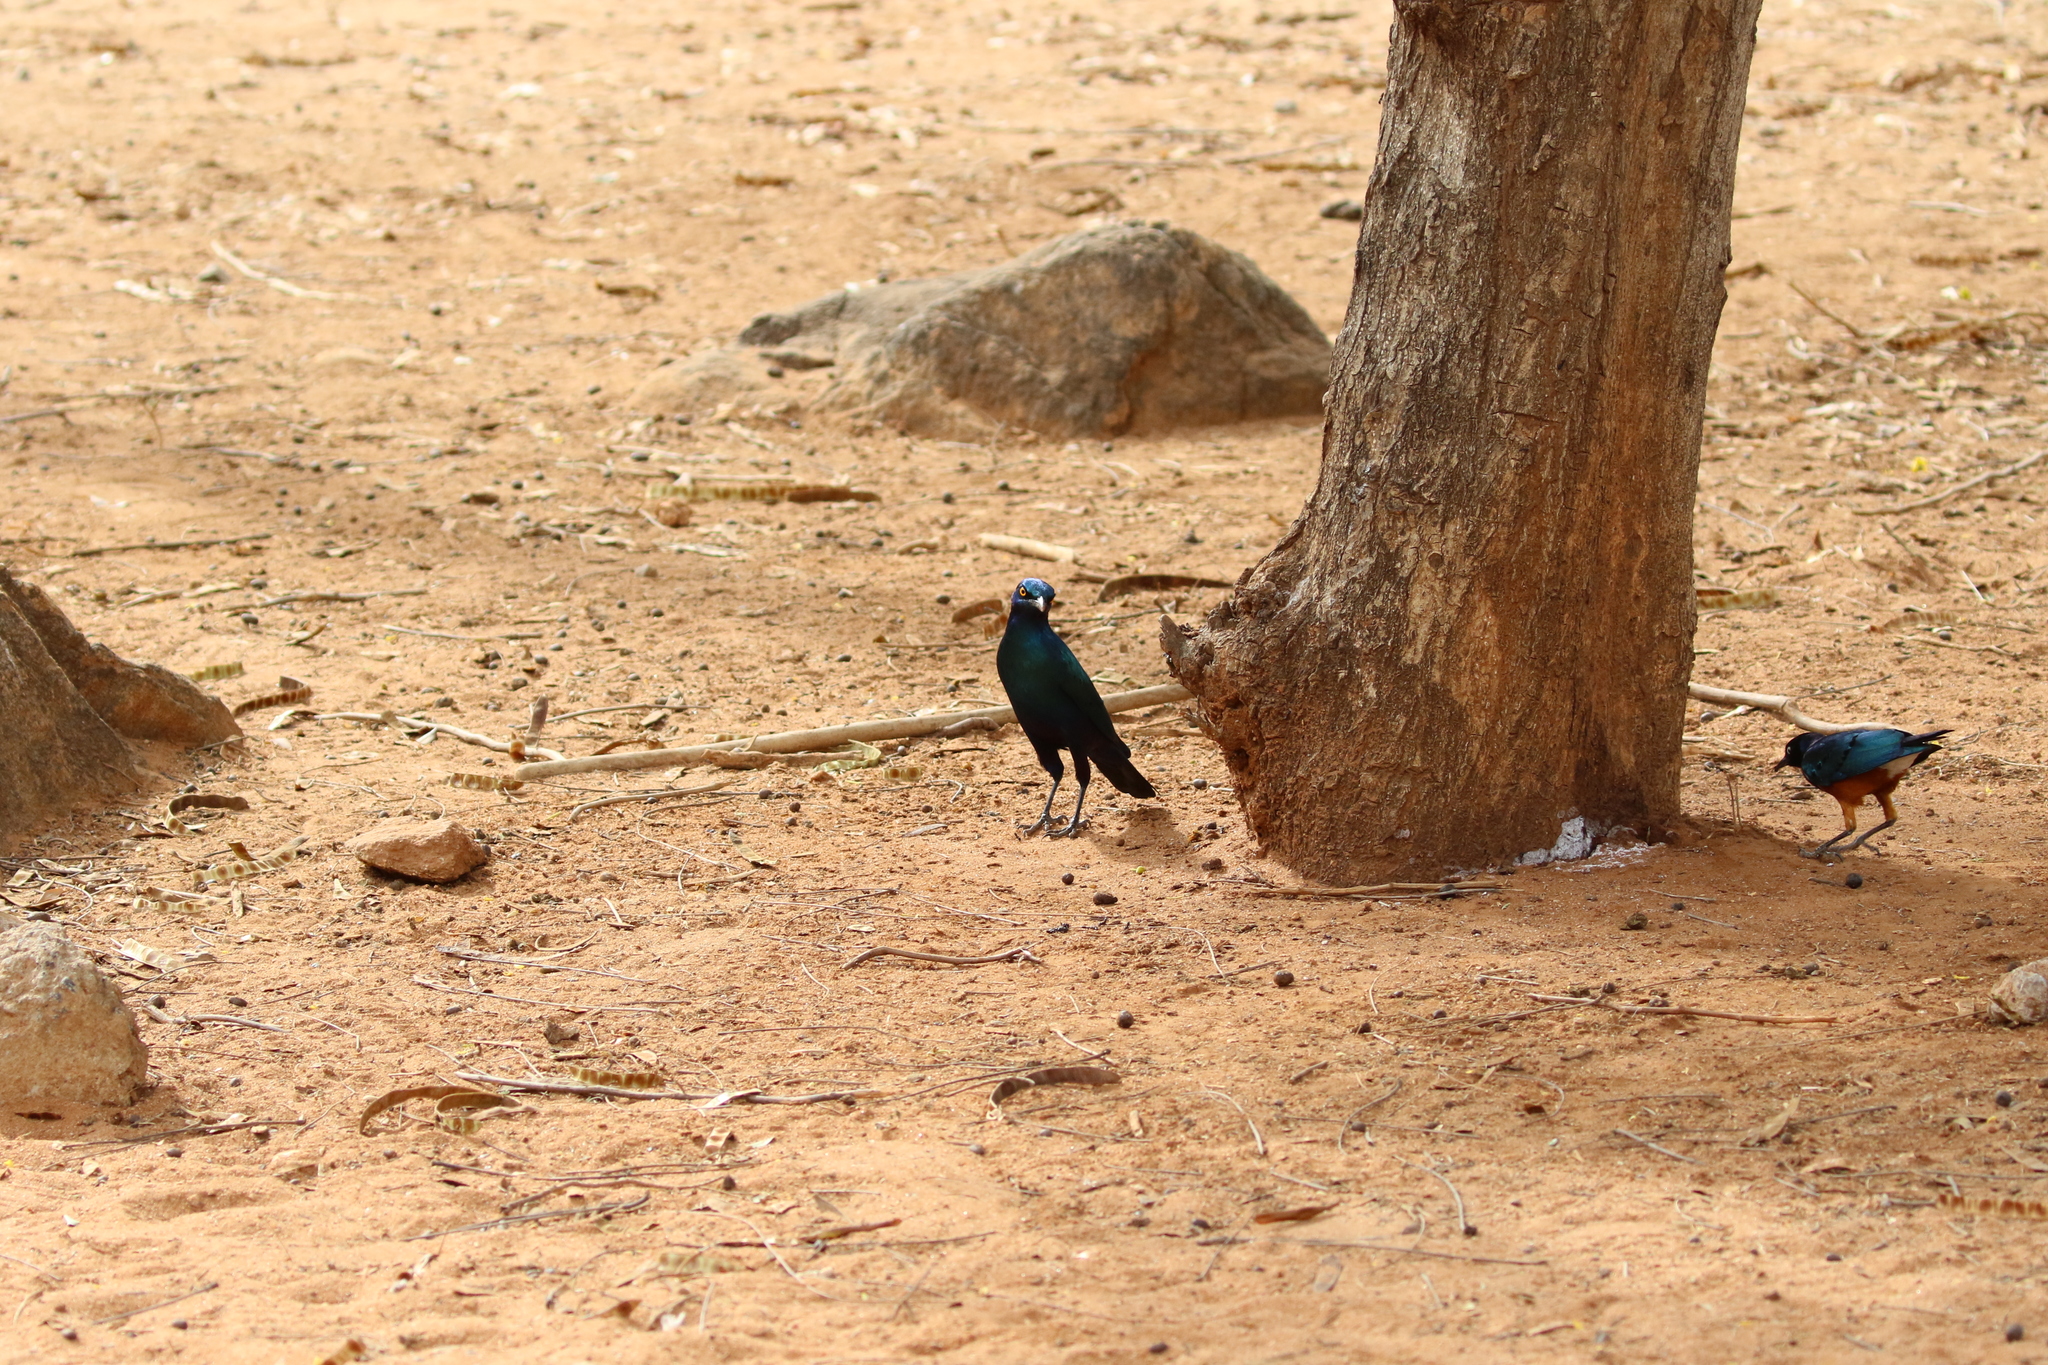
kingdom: Animalia
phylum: Chordata
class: Aves
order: Passeriformes
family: Sturnidae
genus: Lamprotornis
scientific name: Lamprotornis chalybaeus
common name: Greater blue-eared starling
